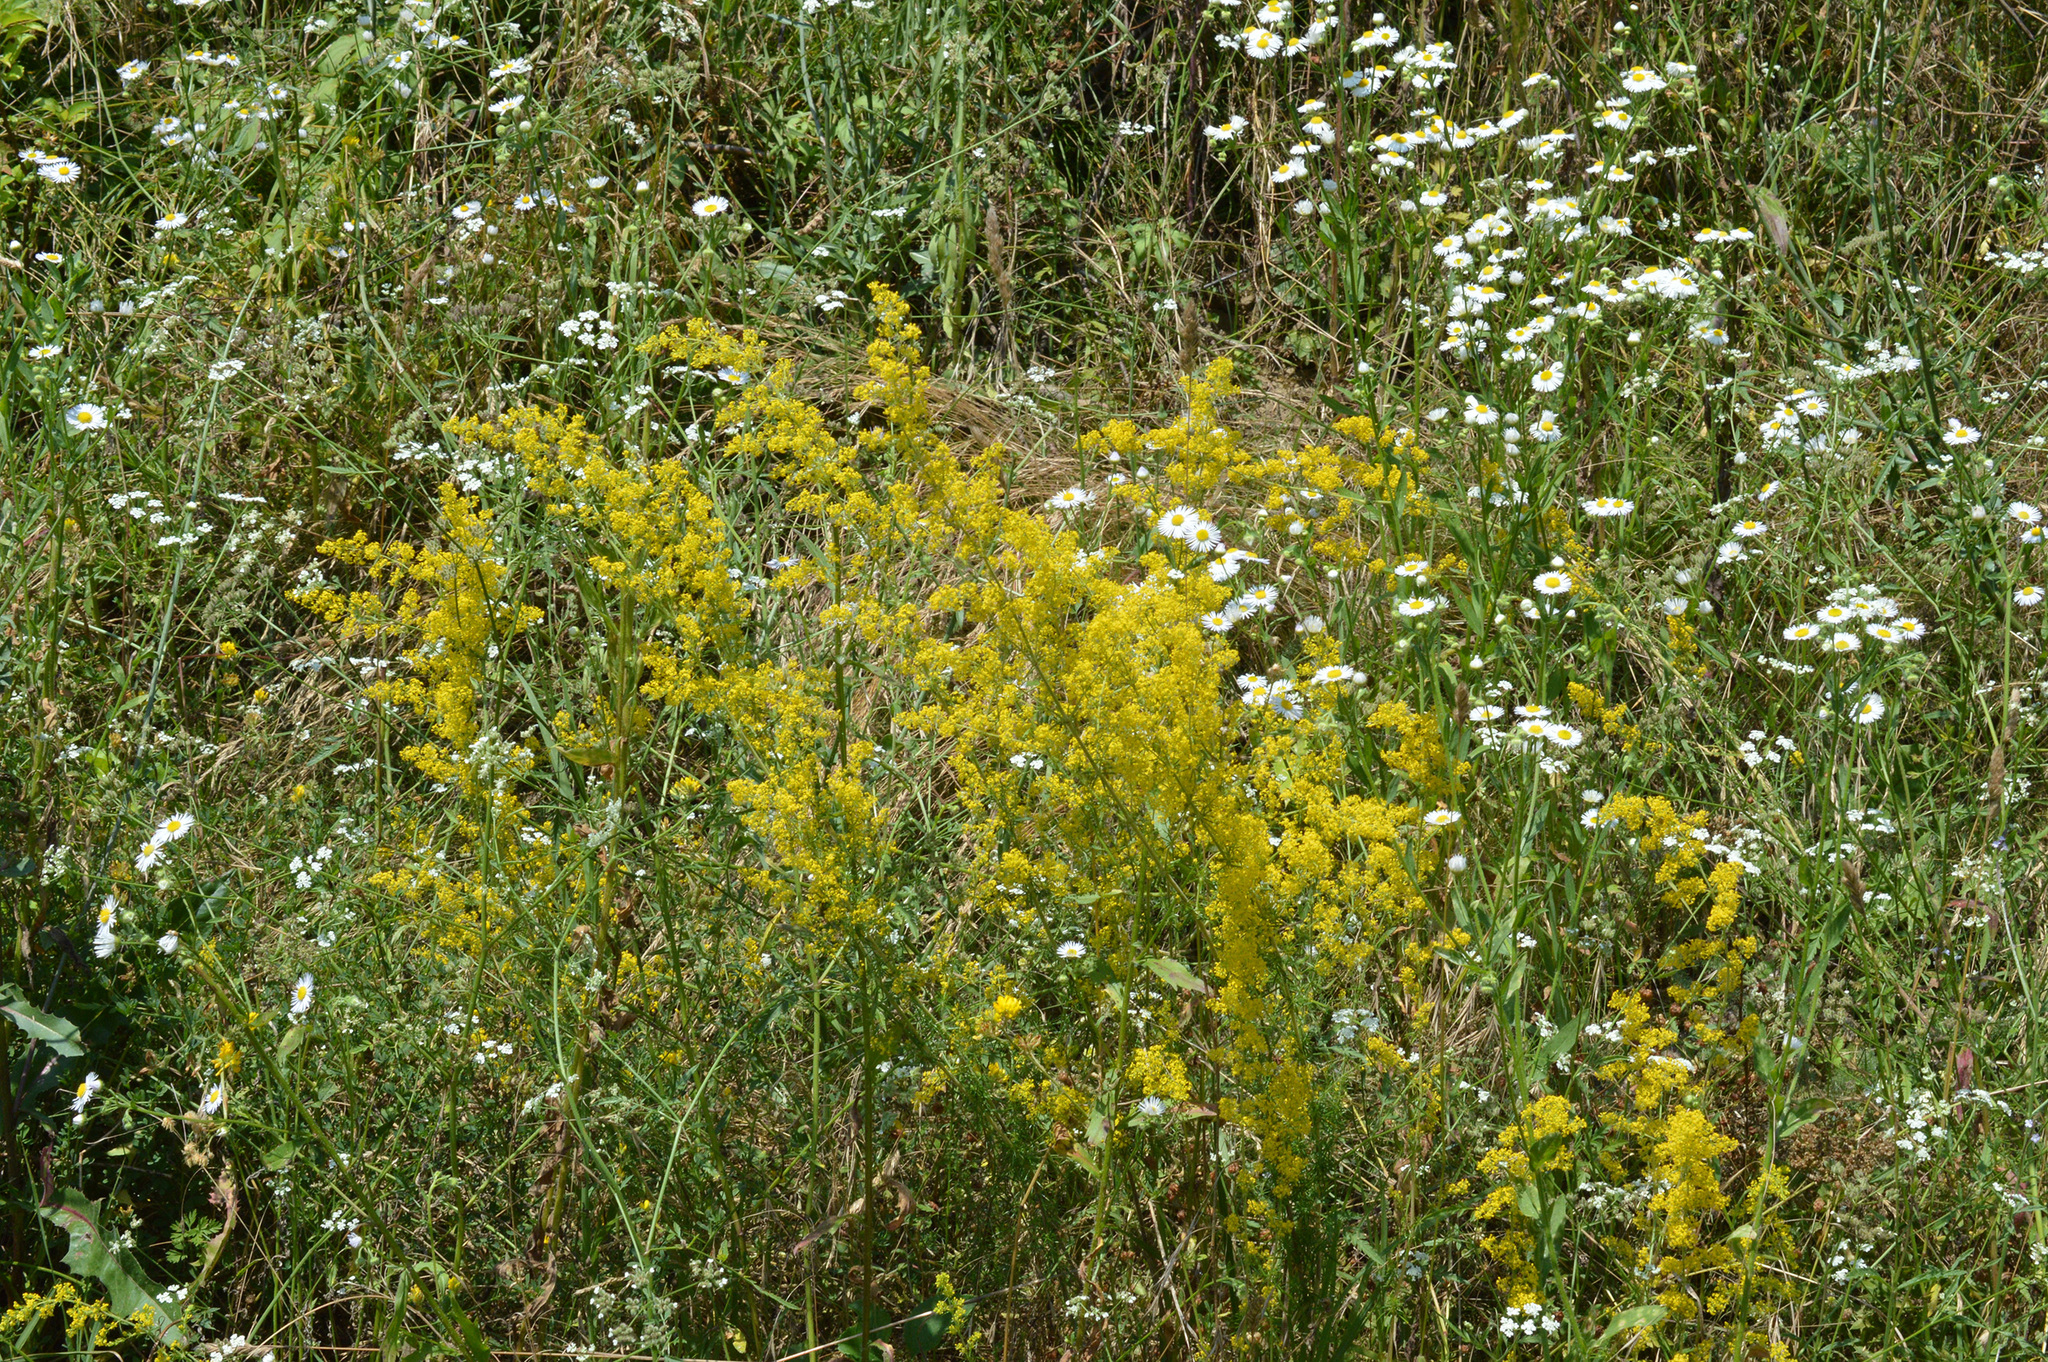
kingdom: Plantae
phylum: Tracheophyta
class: Magnoliopsida
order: Gentianales
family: Rubiaceae
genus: Galium
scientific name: Galium verum
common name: Lady's bedstraw
